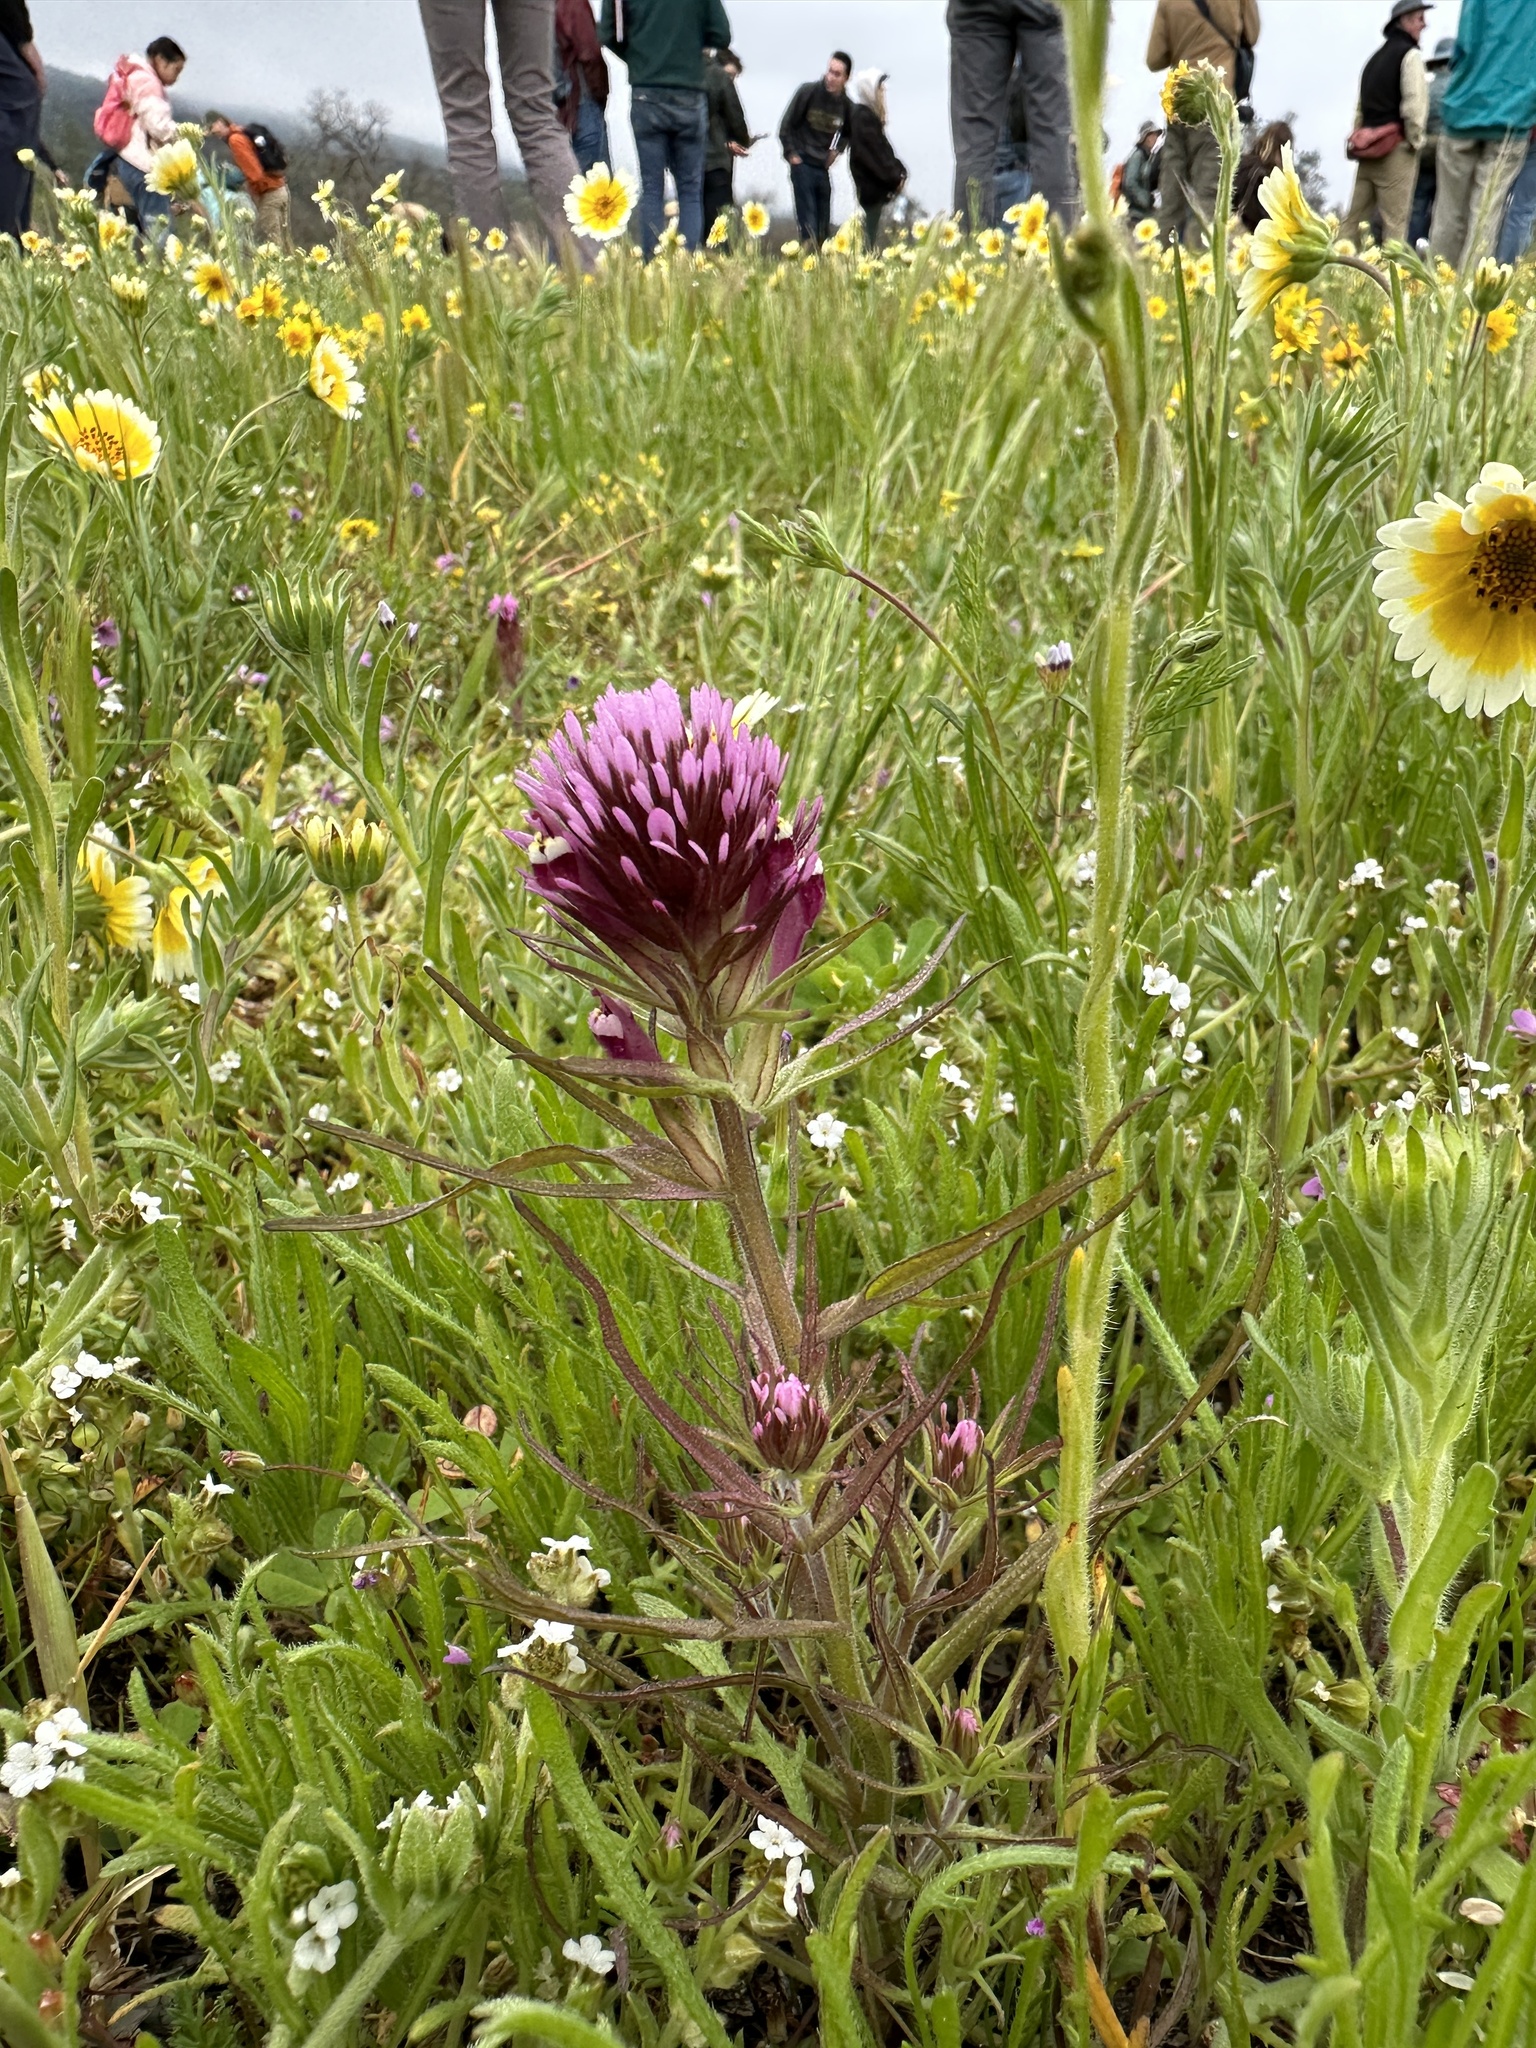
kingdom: Plantae
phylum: Tracheophyta
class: Magnoliopsida
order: Lamiales
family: Orobanchaceae
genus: Castilleja
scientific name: Castilleja densiflora
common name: Dense-flower indian paintbrush
